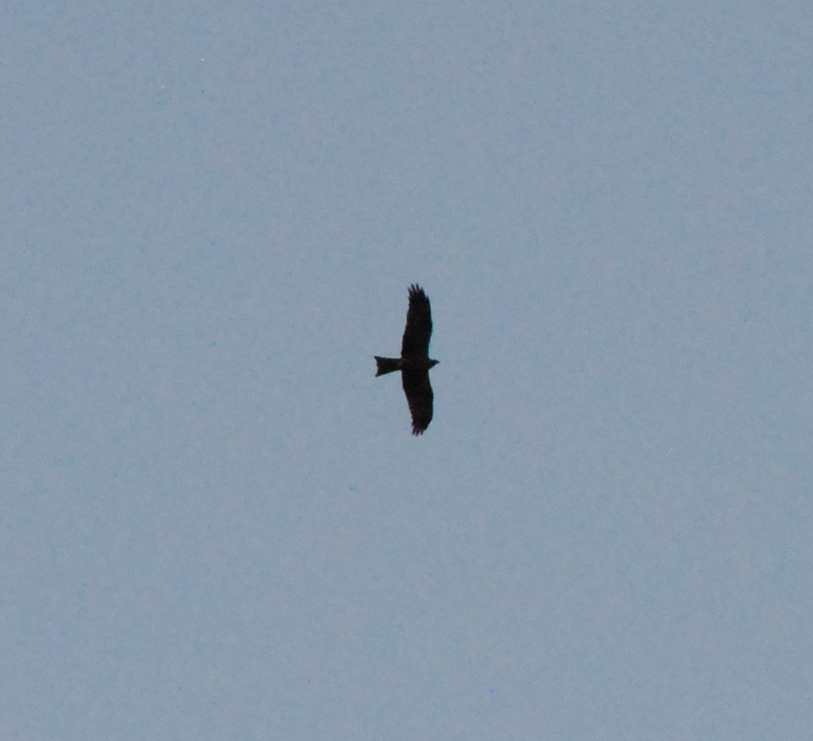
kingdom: Animalia
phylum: Chordata
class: Aves
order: Accipitriformes
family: Accipitridae
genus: Milvus
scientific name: Milvus migrans
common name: Black kite
